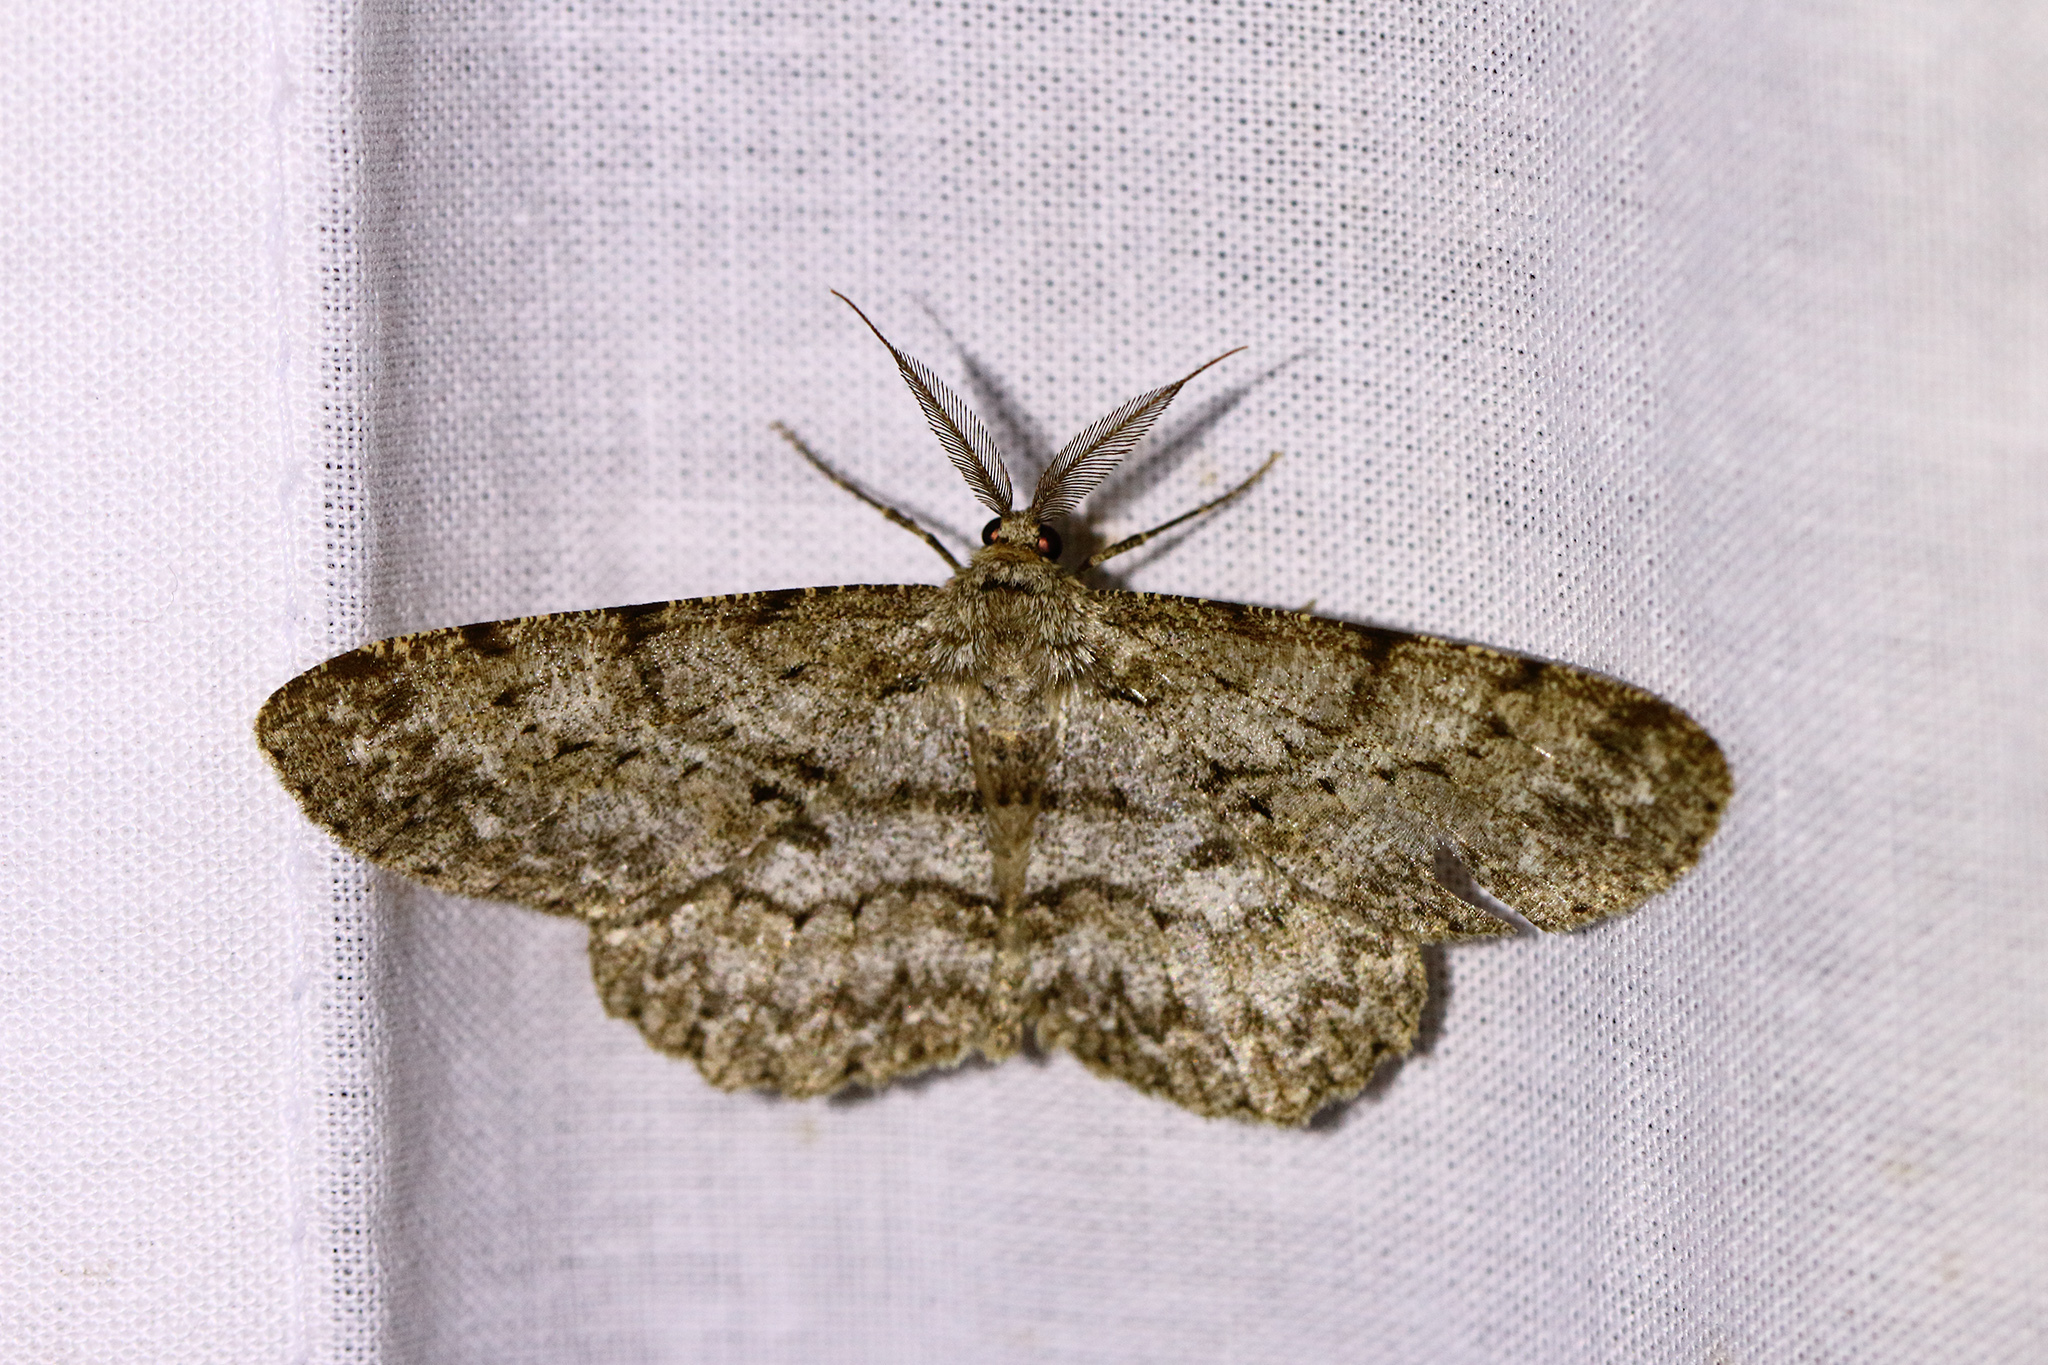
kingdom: Animalia
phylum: Arthropoda
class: Insecta
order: Lepidoptera
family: Geometridae
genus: Hypomecis
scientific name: Hypomecis punctinalis
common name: Pale oak beauty
